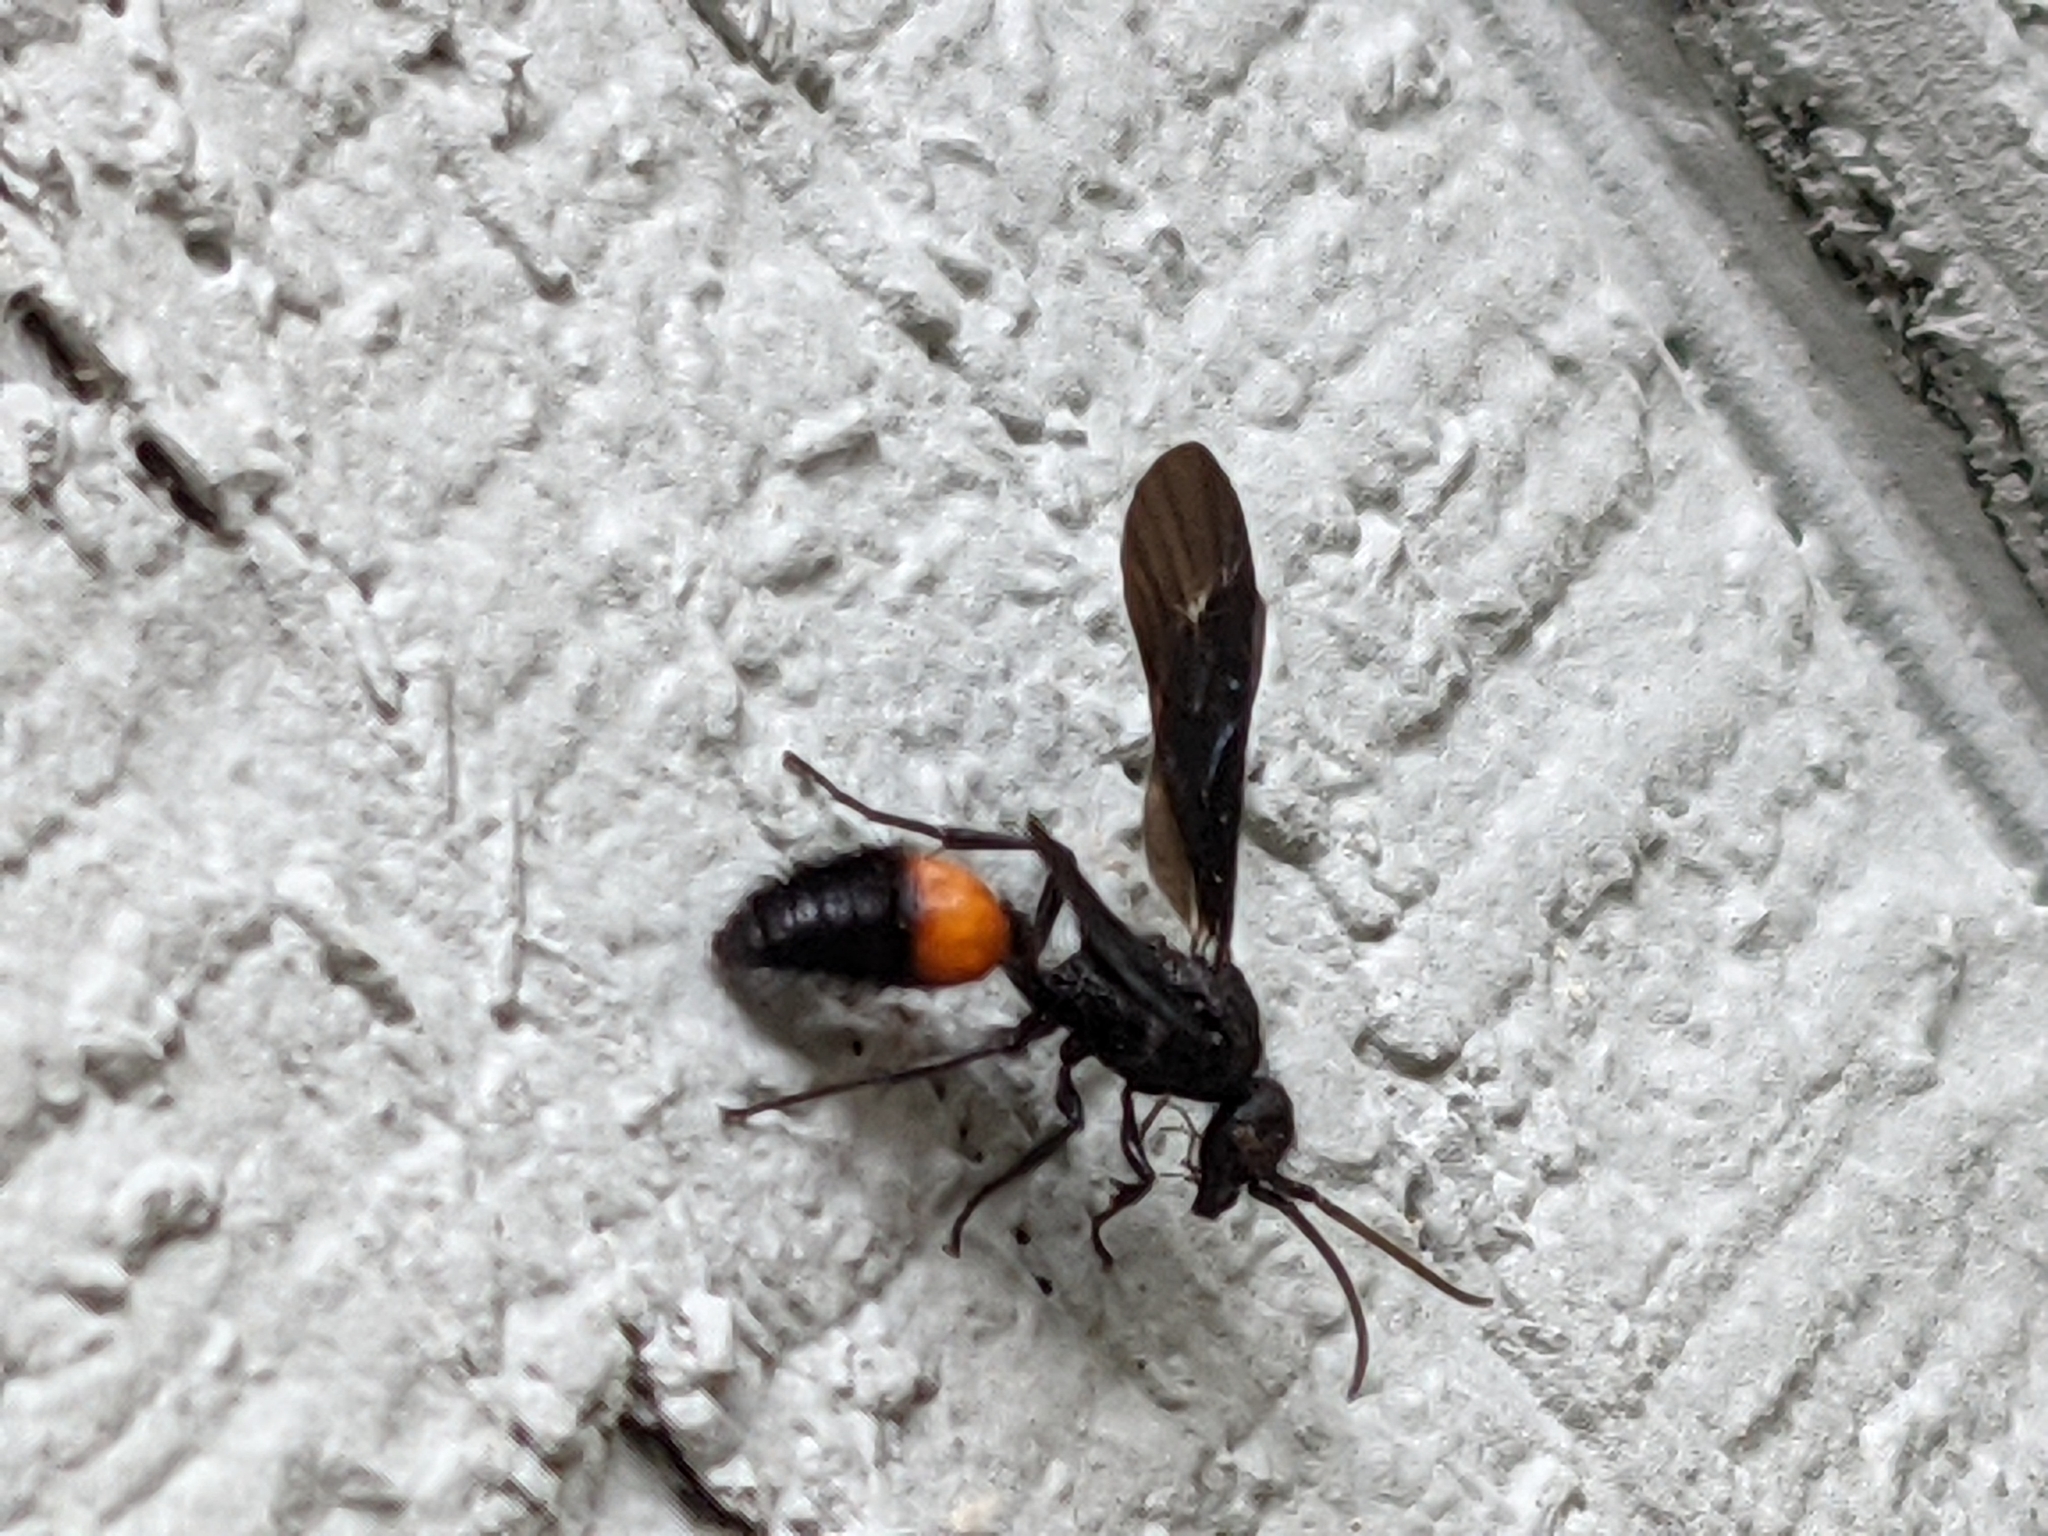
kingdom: Animalia
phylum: Arthropoda
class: Insecta
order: Hymenoptera
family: Mutillidae
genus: Sphaeropthalma
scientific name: Sphaeropthalma
